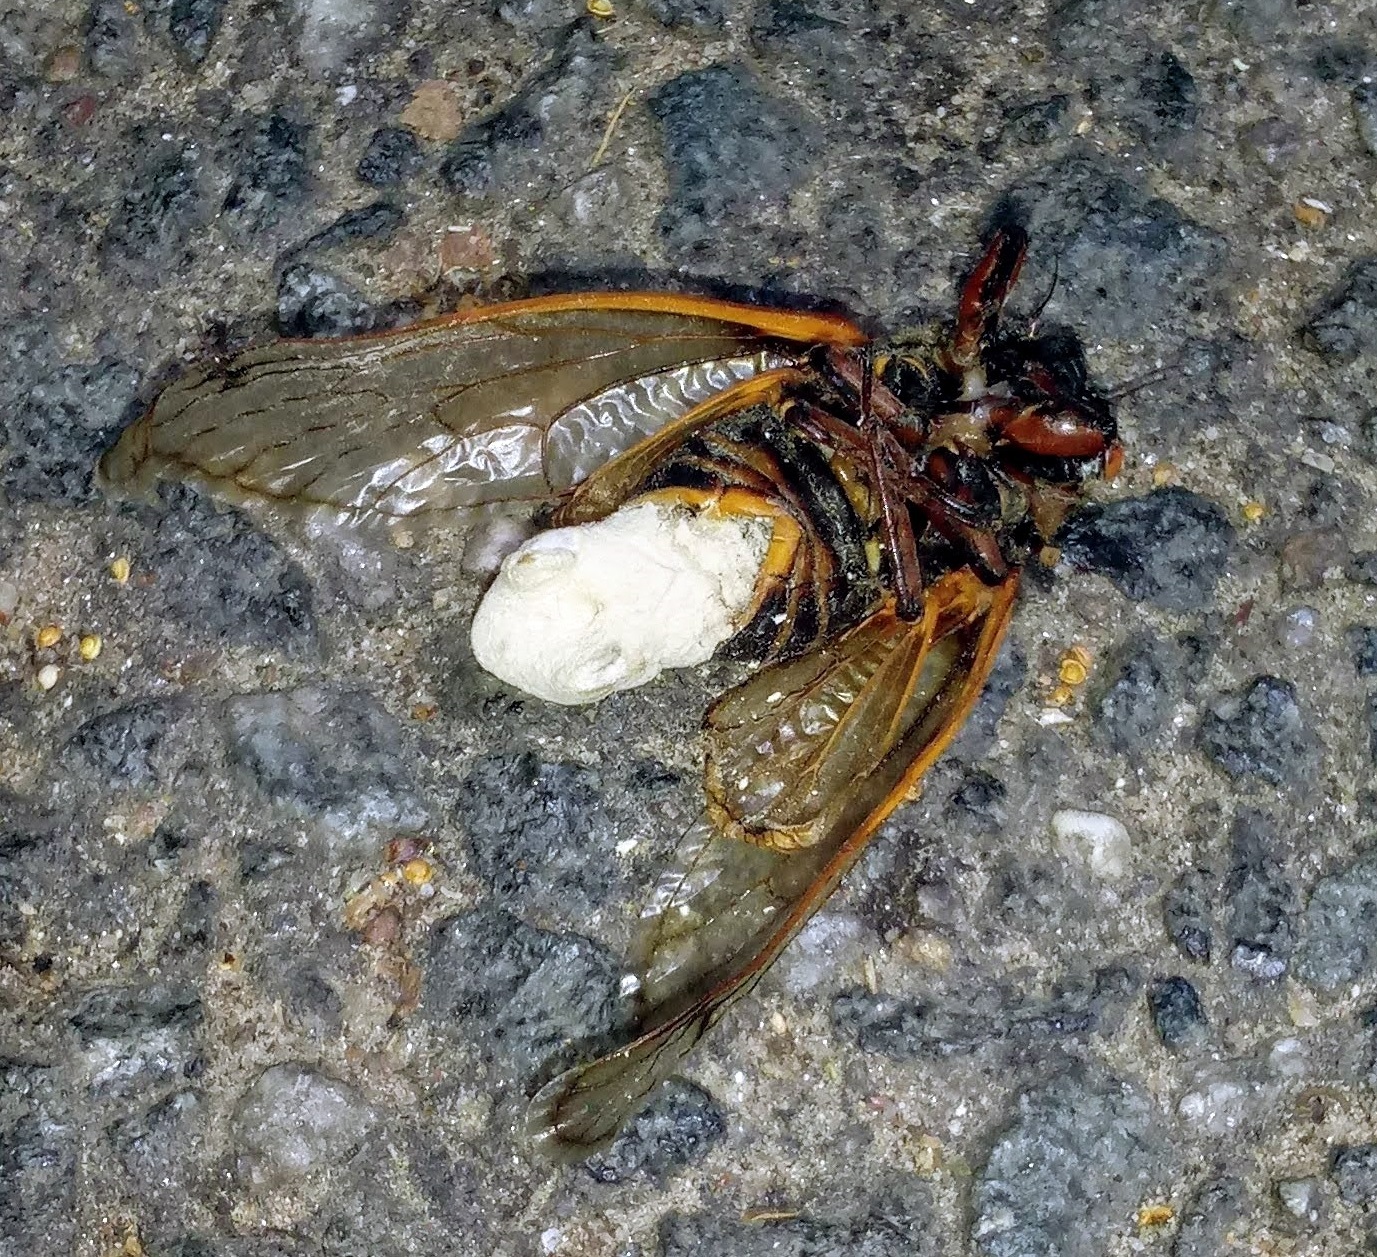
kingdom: Fungi
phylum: Entomophthoromycota
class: Entomophthoromycetes
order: Entomophthorales
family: Entomophthoraceae
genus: Massospora
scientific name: Massospora cicadina
